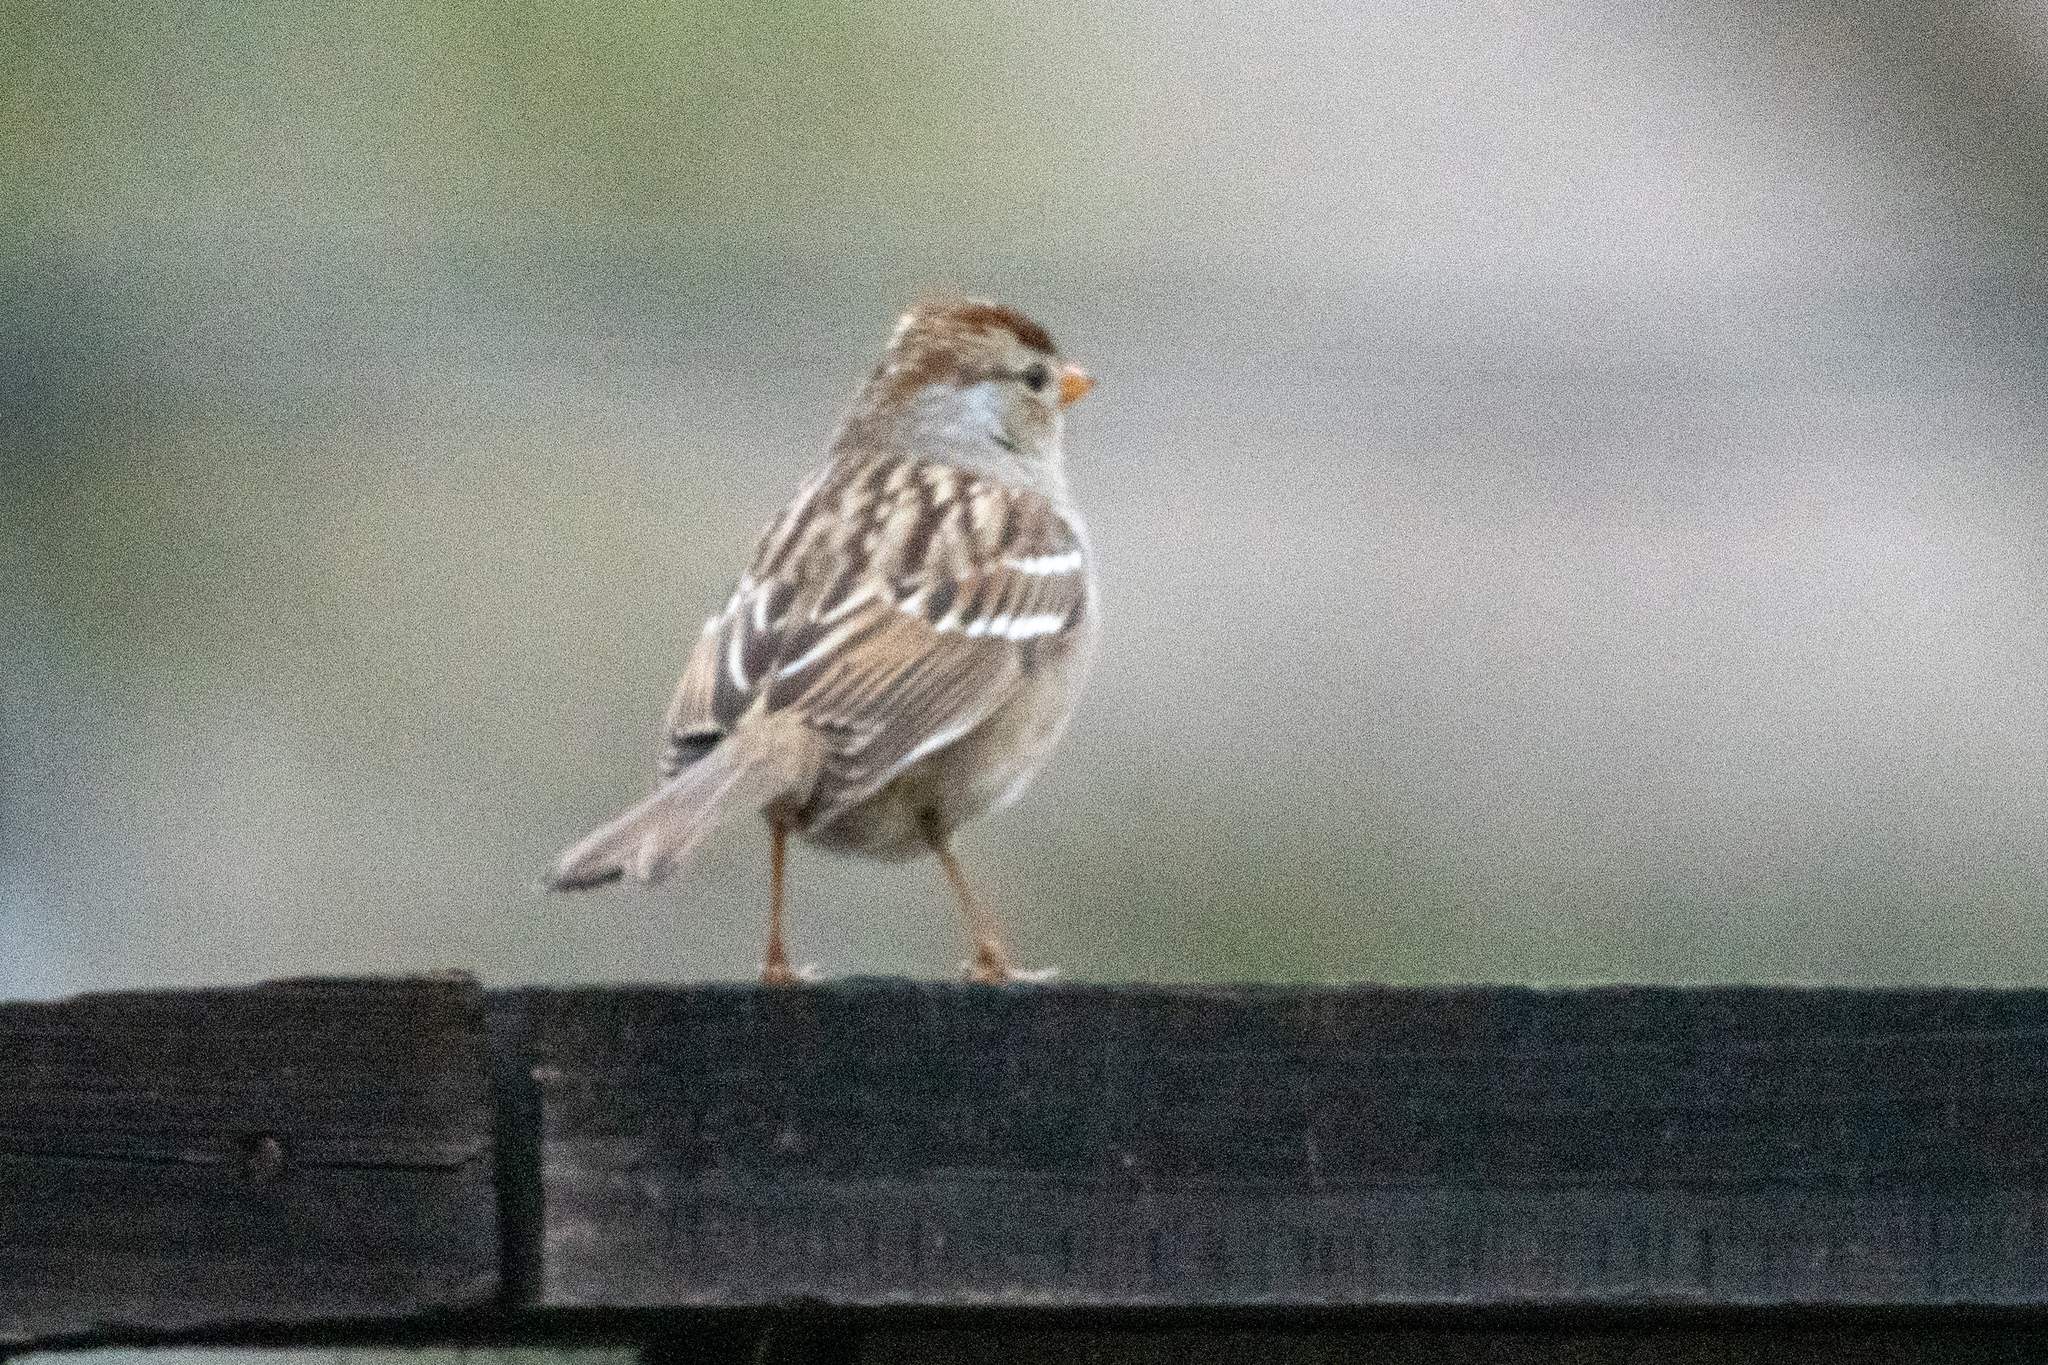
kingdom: Animalia
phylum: Chordata
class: Aves
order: Passeriformes
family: Passerellidae
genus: Zonotrichia
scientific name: Zonotrichia leucophrys
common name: White-crowned sparrow
